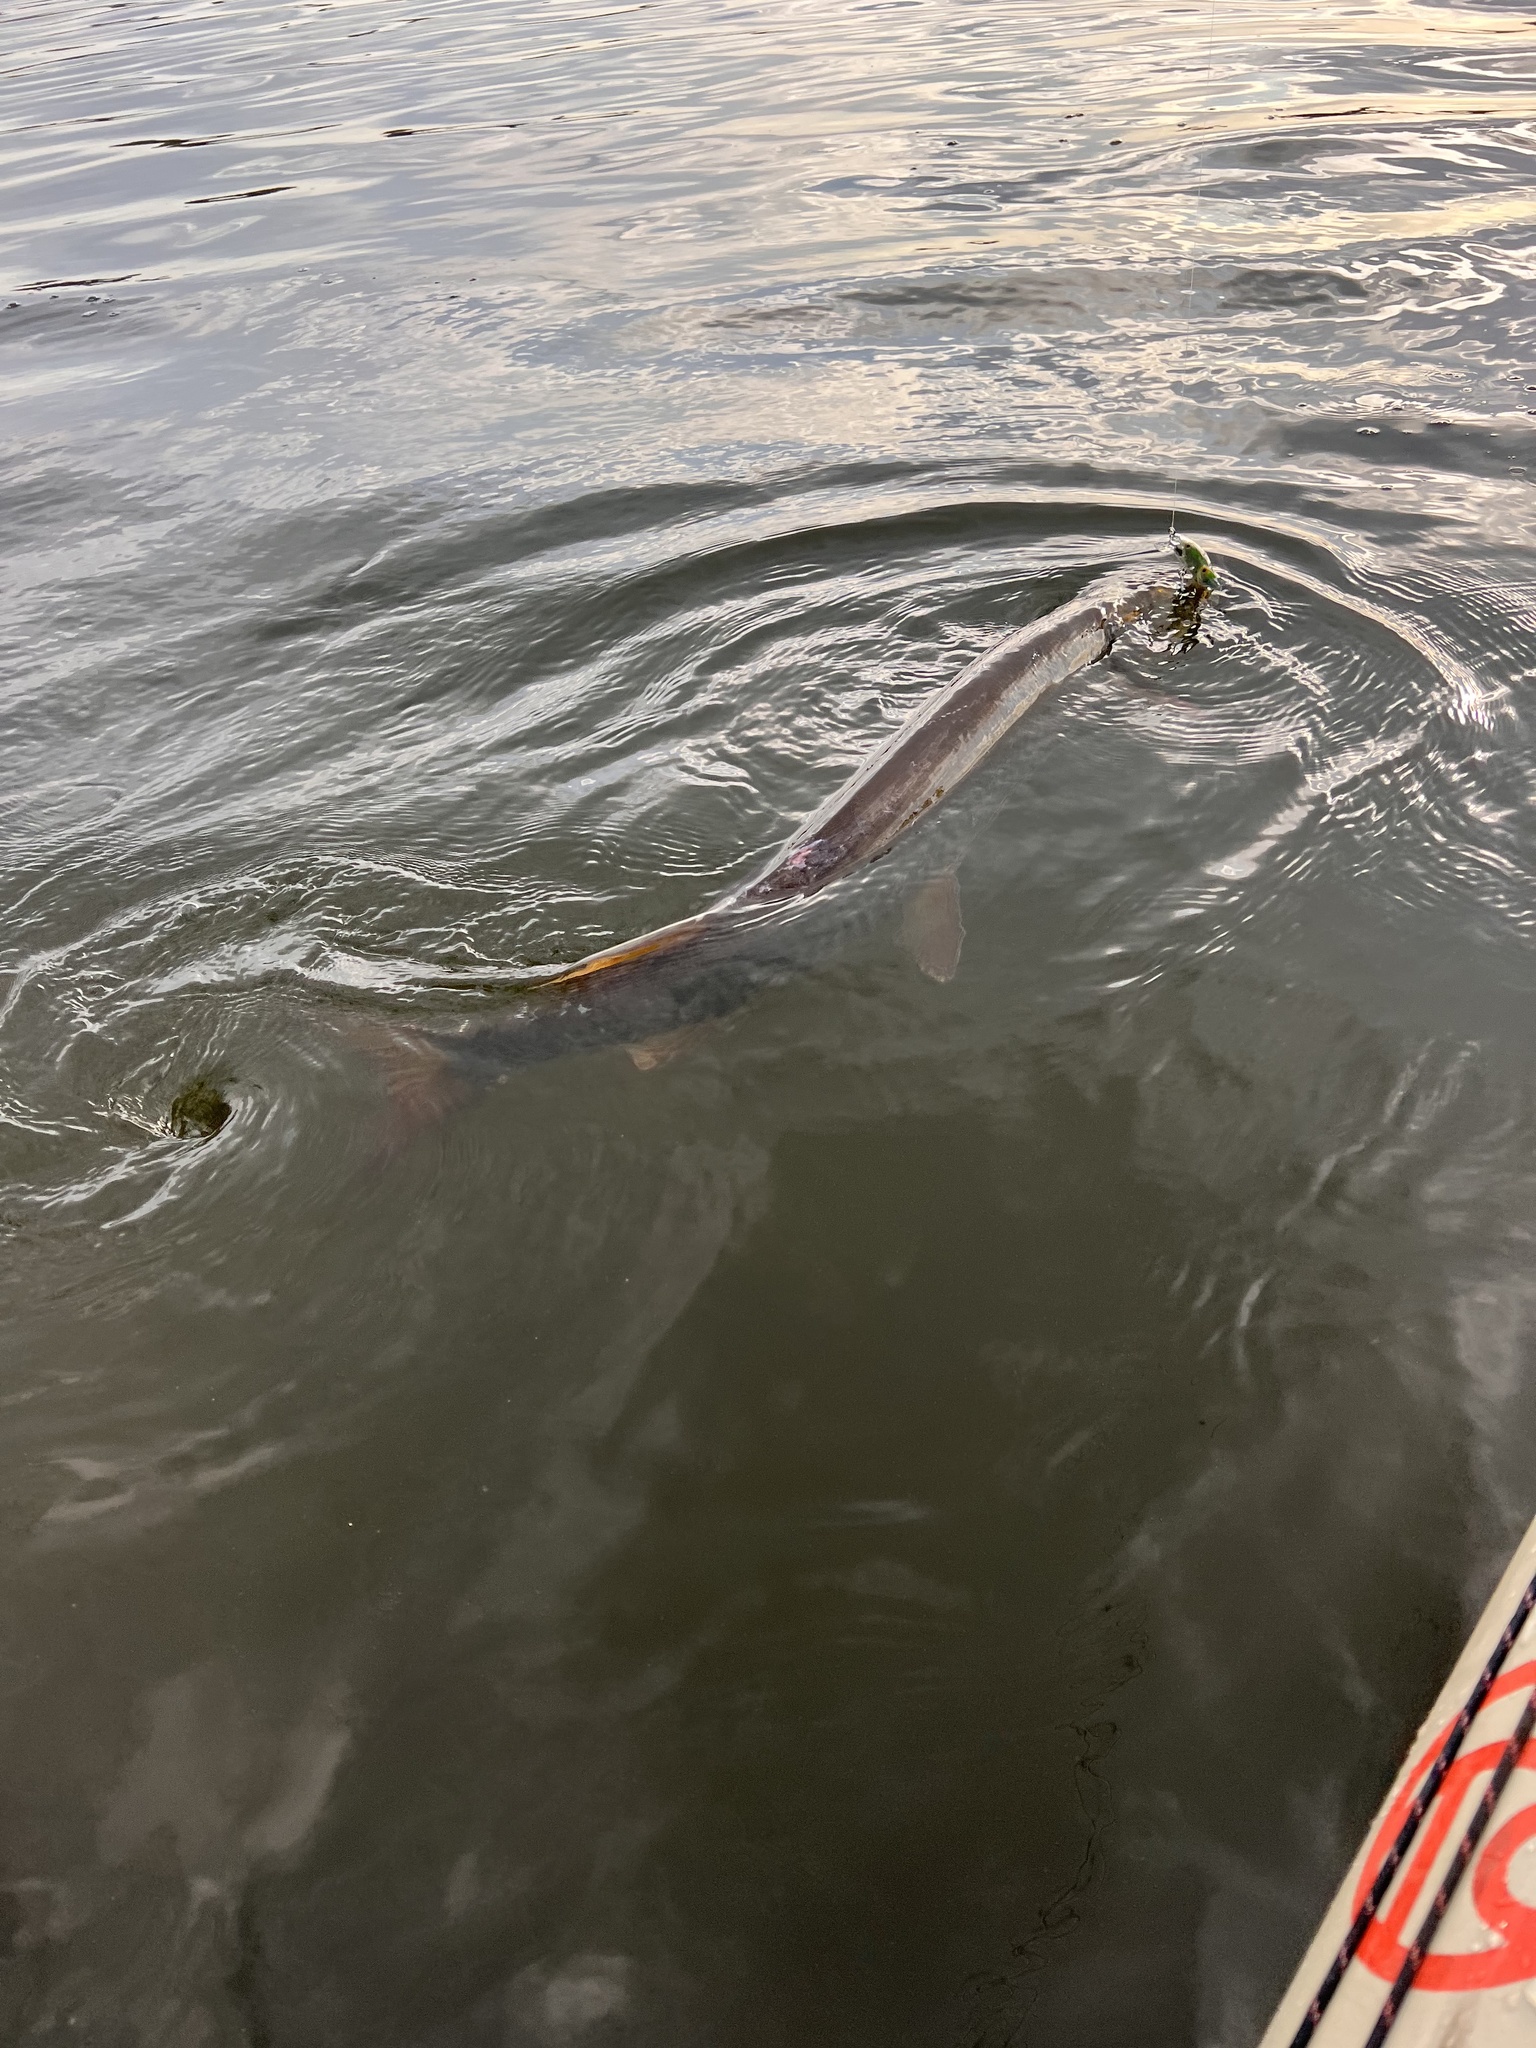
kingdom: Animalia
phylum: Chordata
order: Esociformes
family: Esocidae
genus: Esox
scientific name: Esox masquinongy
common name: Muskellunge
